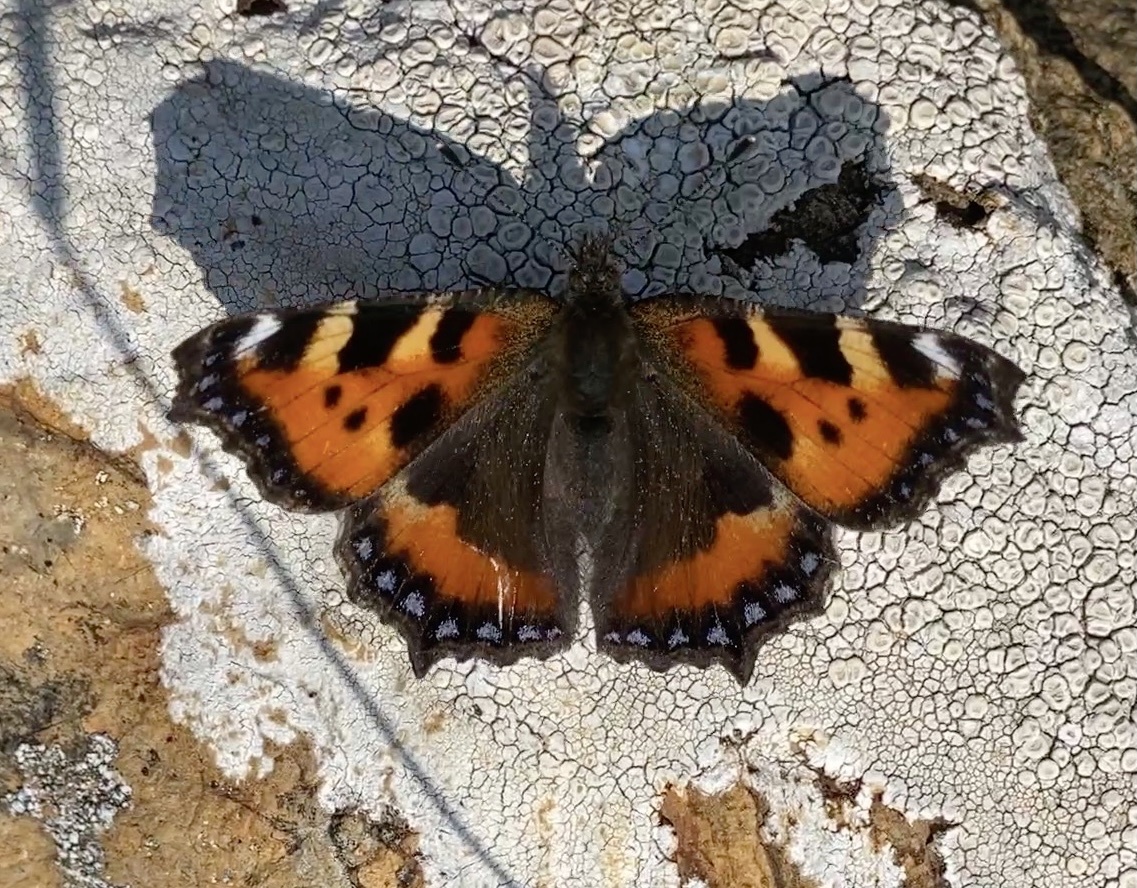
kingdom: Animalia
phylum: Arthropoda
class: Insecta
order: Lepidoptera
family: Nymphalidae
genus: Aglais
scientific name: Aglais urticae
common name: Small tortoiseshell
